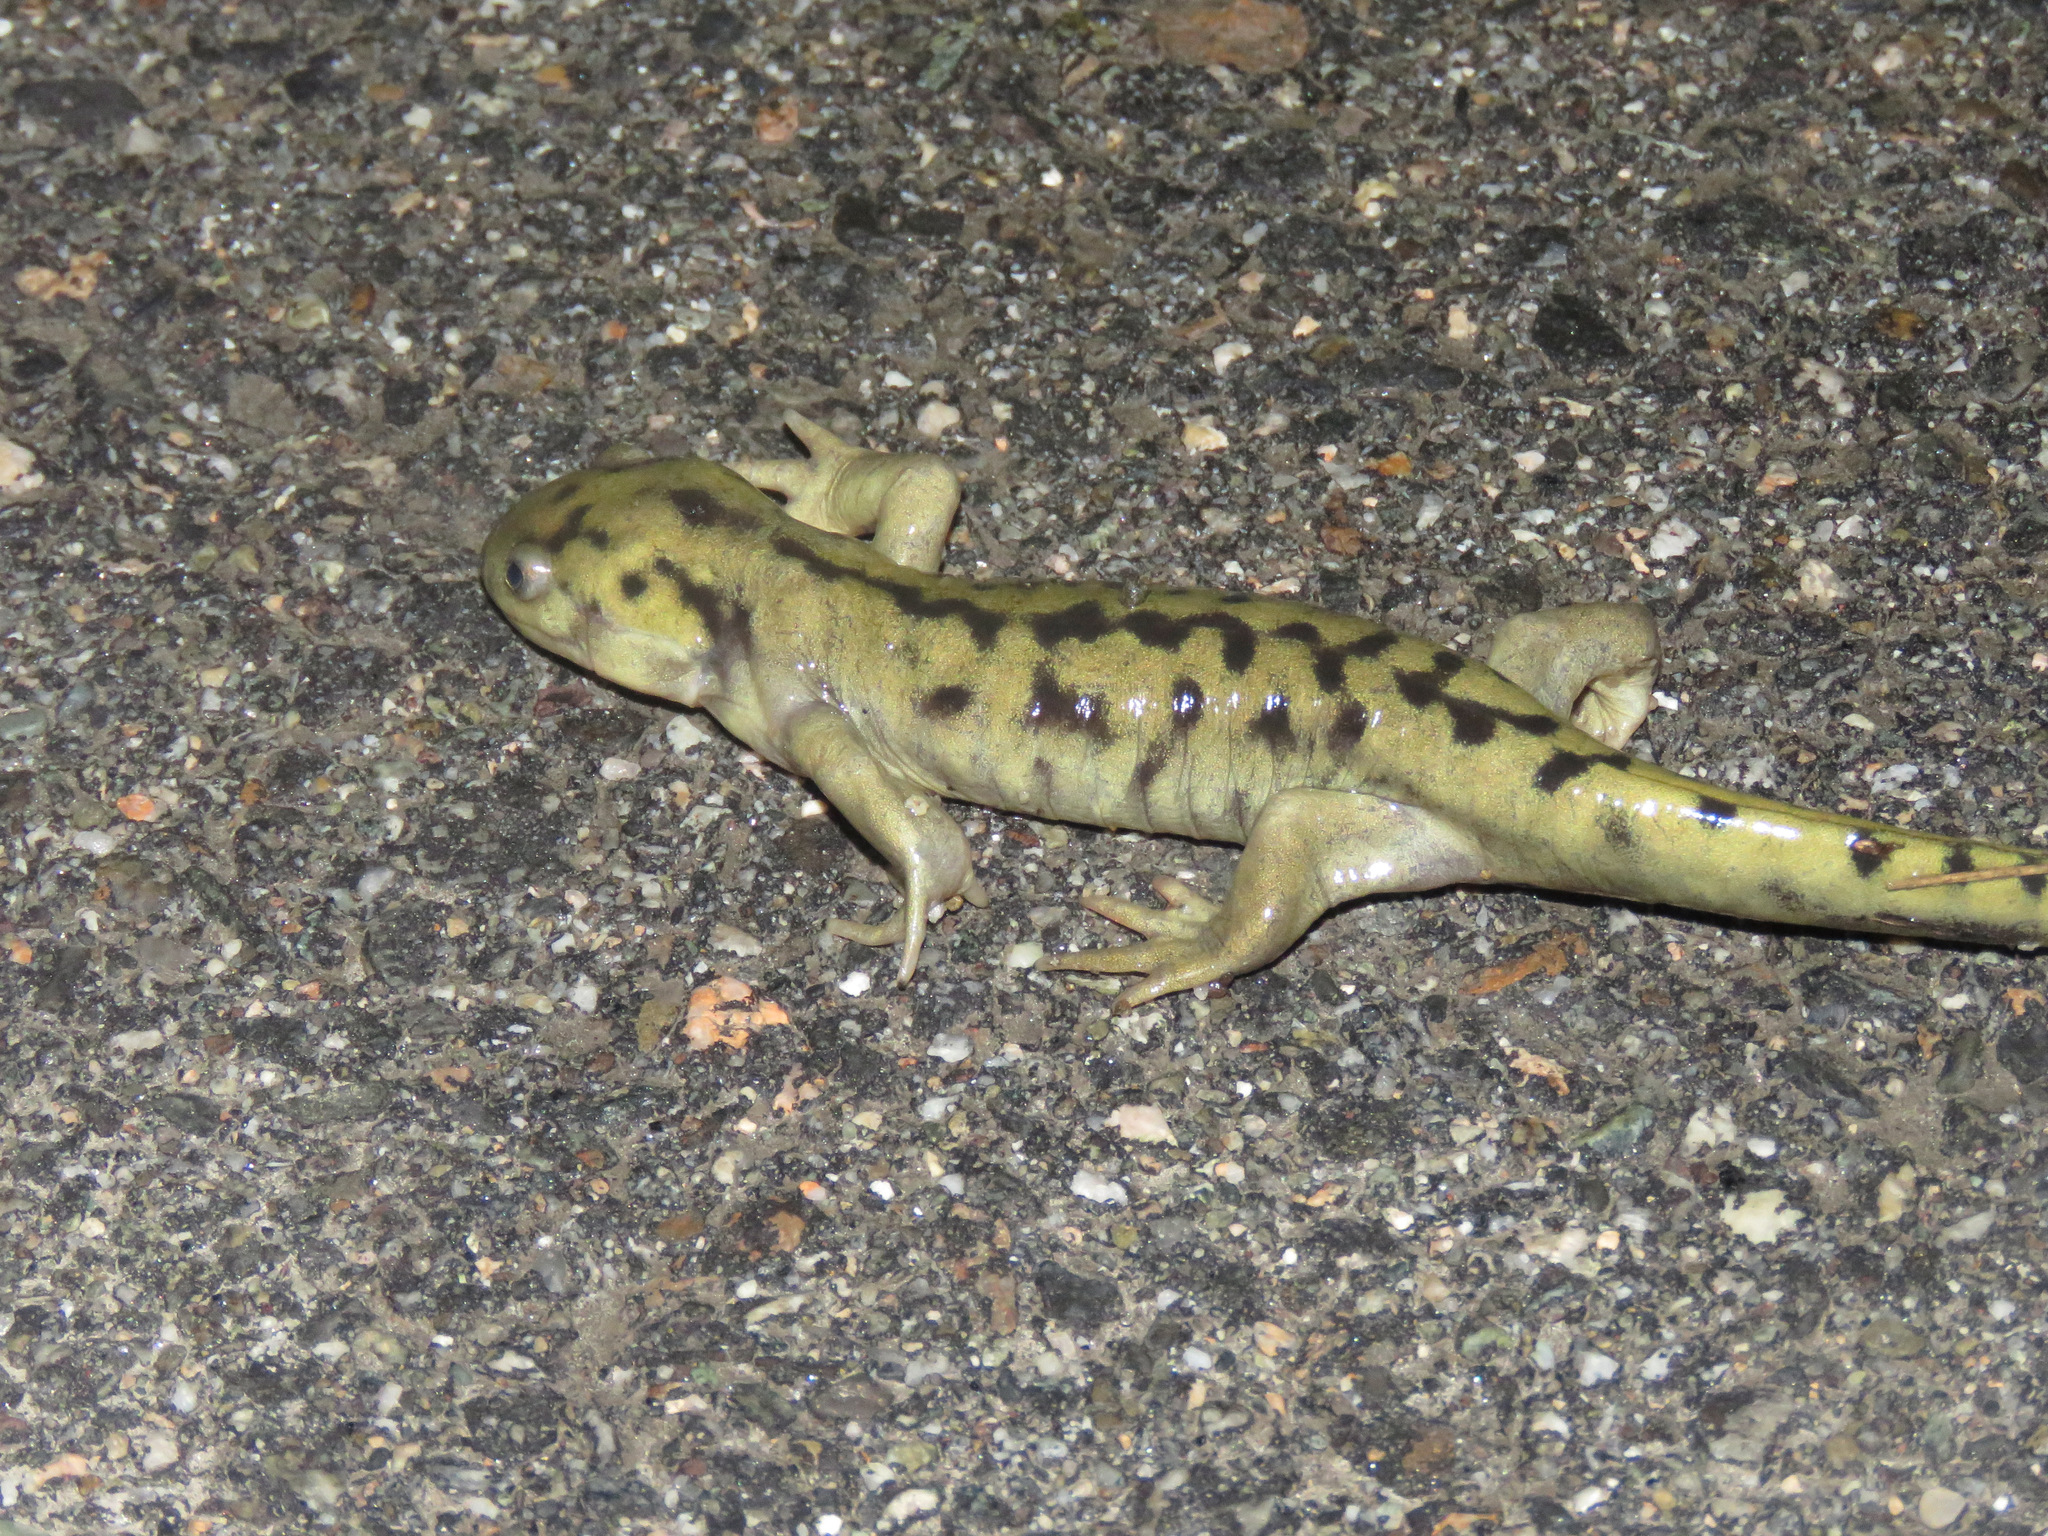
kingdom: Animalia
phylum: Chordata
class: Amphibia
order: Caudata
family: Ambystomatidae
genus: Ambystoma
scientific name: Ambystoma mavortium
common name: Western tiger salamander
